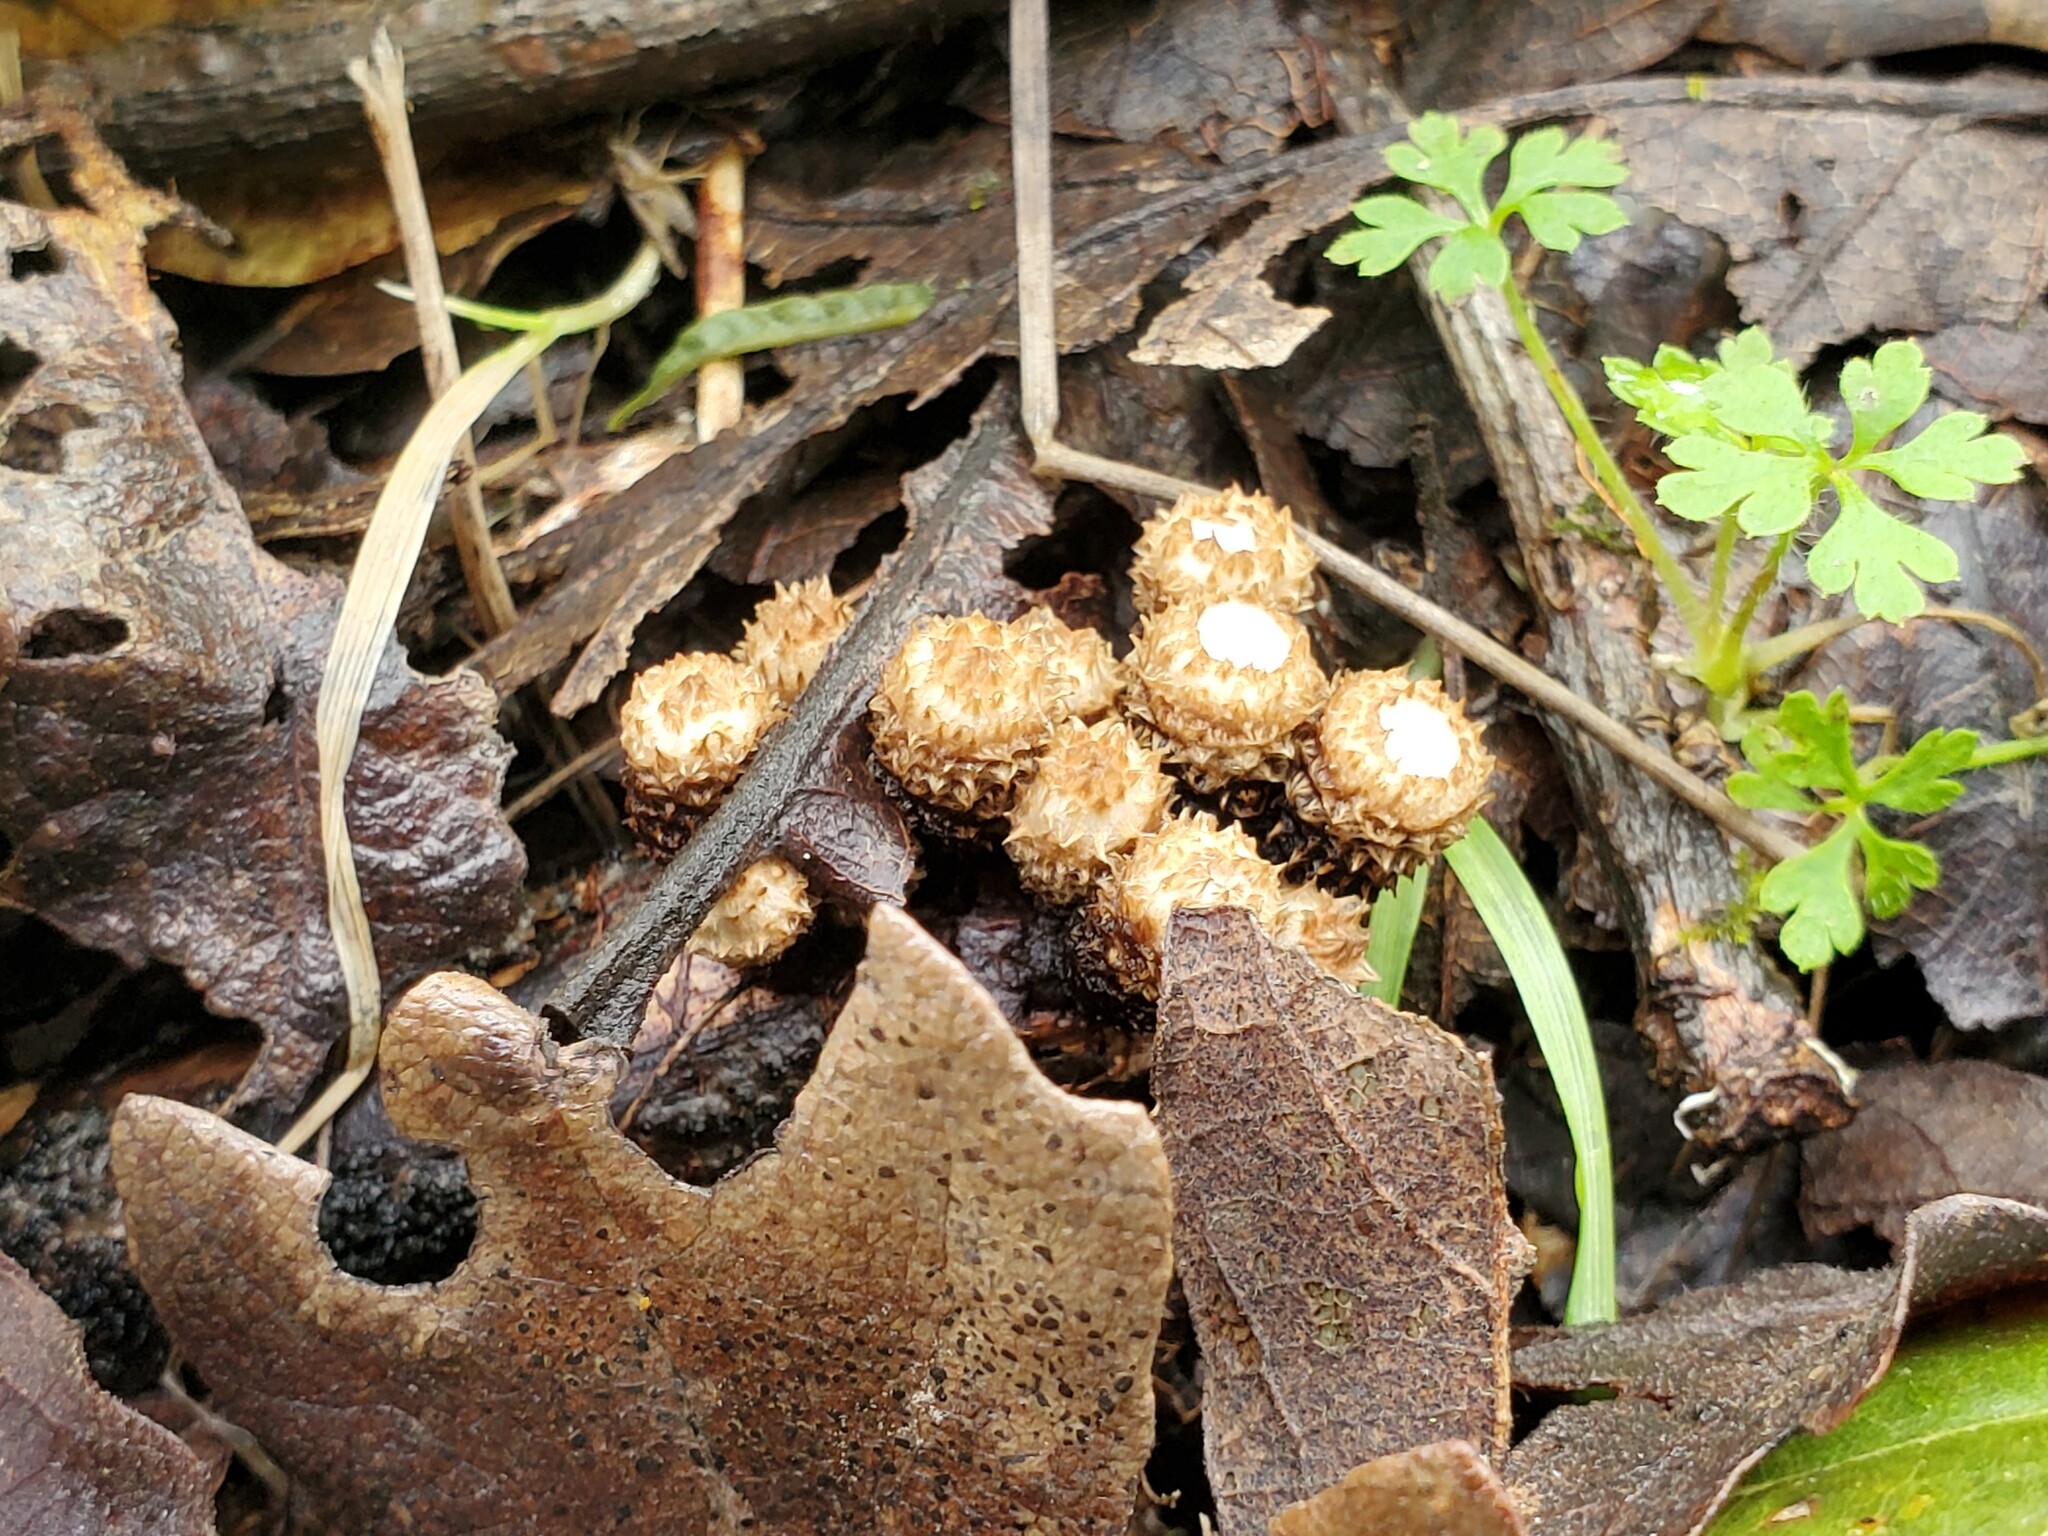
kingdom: Fungi
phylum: Basidiomycota
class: Agaricomycetes
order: Agaricales
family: Agaricaceae
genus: Cyathus
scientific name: Cyathus striatus
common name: Fluted bird's nest
